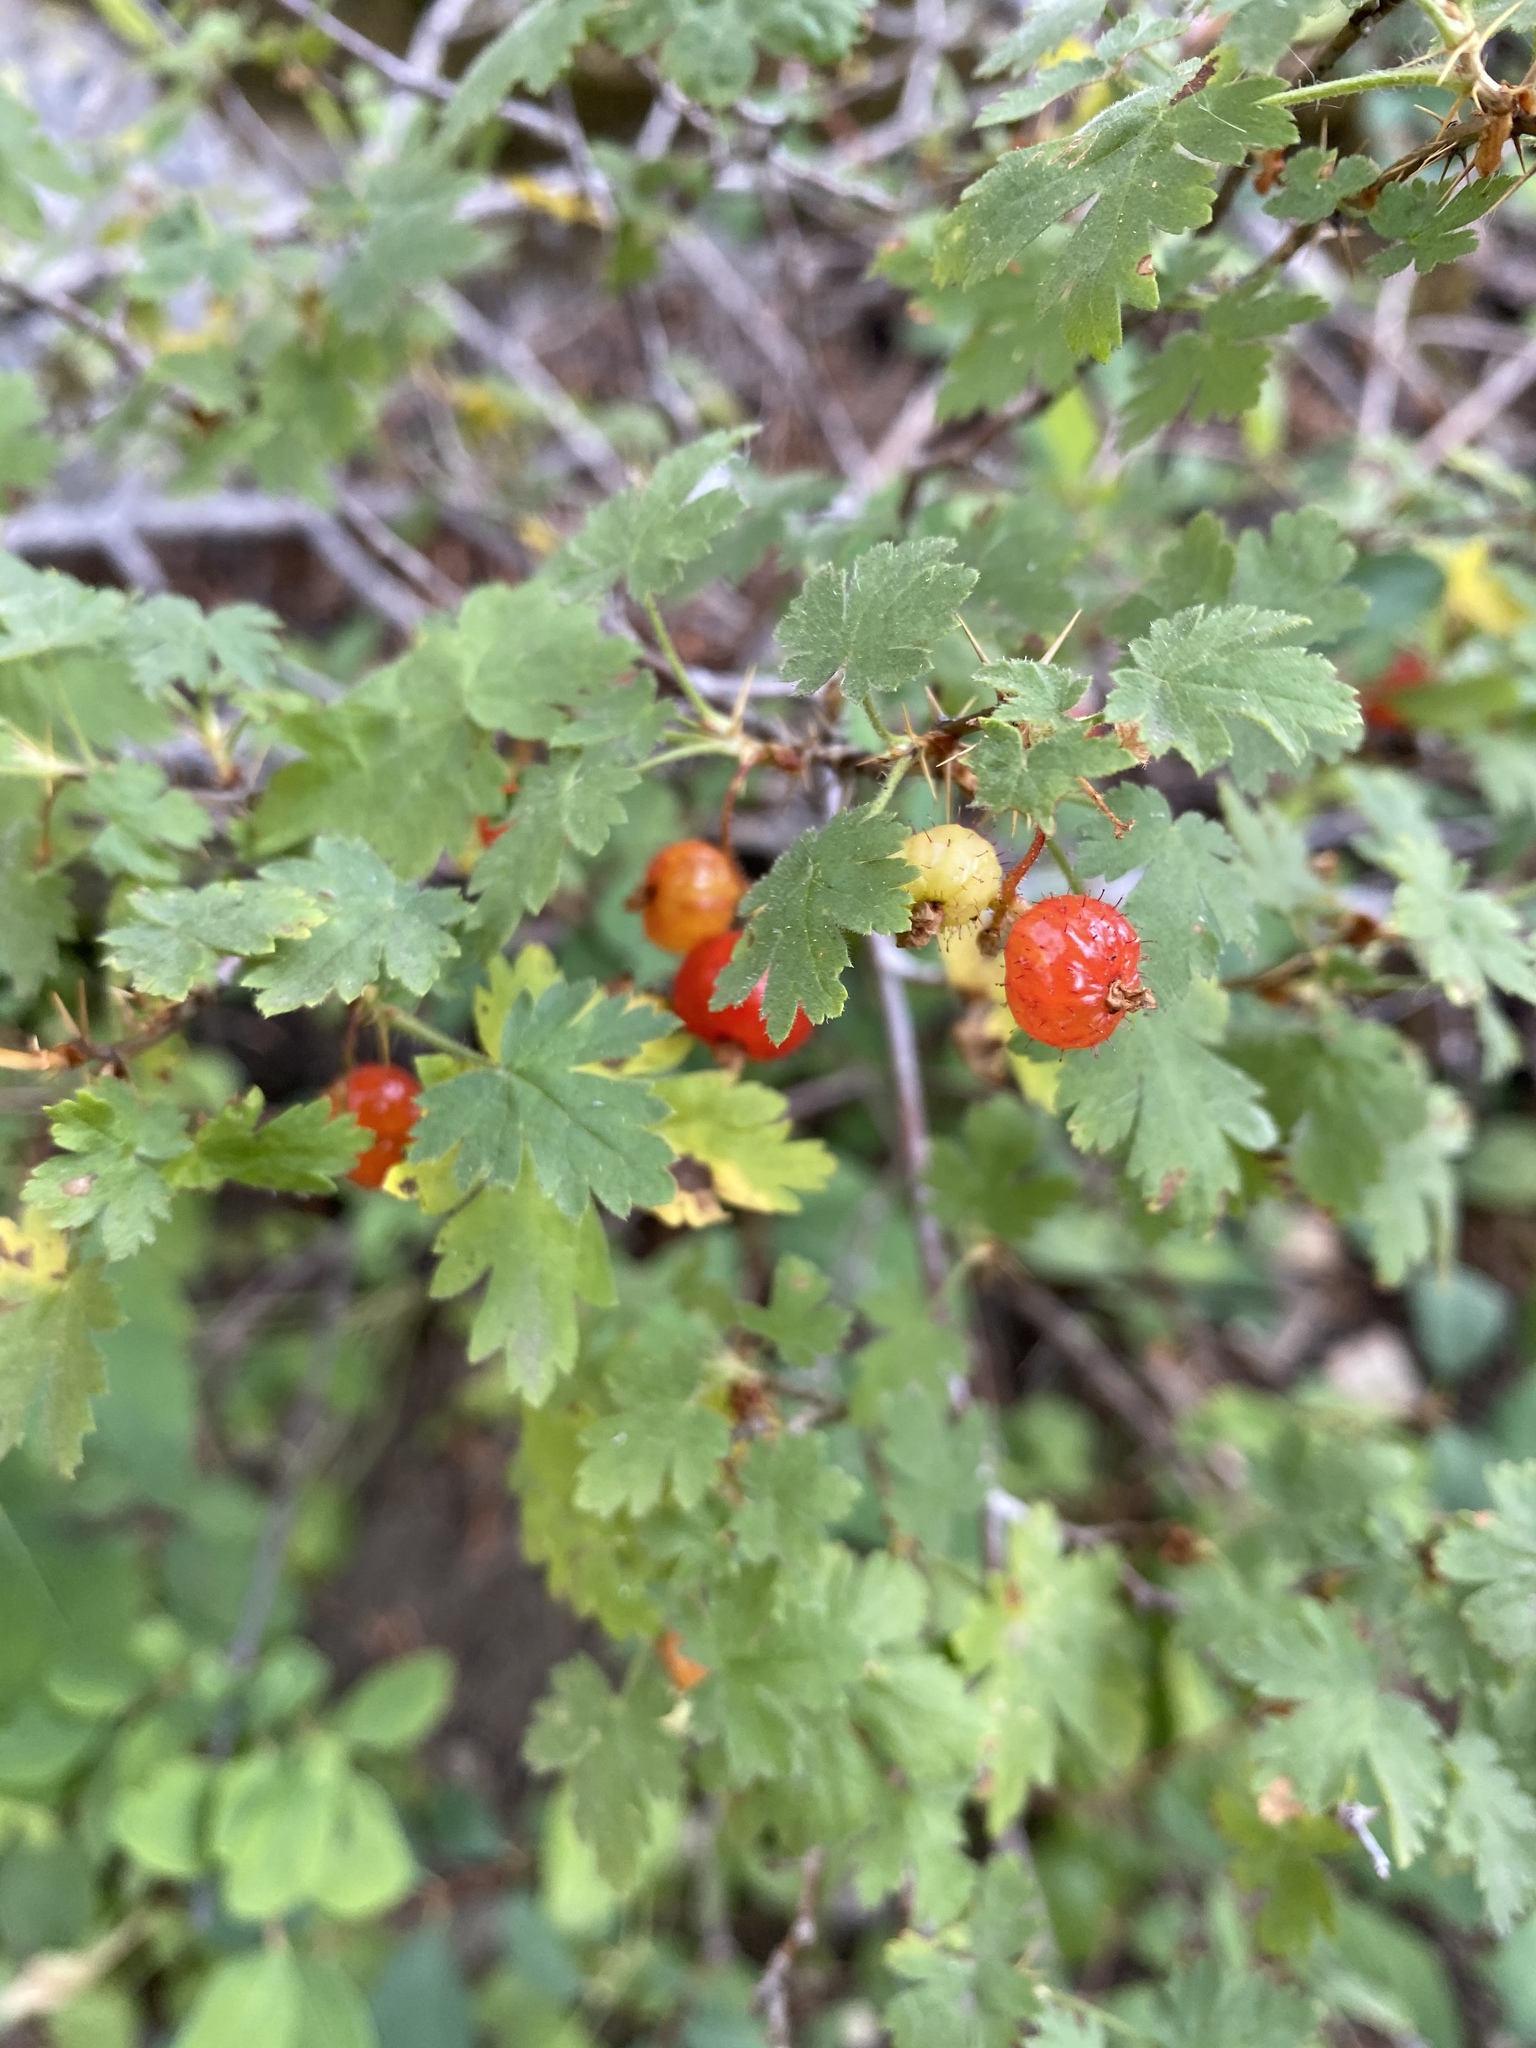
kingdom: Plantae
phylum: Tracheophyta
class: Magnoliopsida
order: Saxifragales
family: Grossulariaceae
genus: Ribes
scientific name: Ribes montigenum
